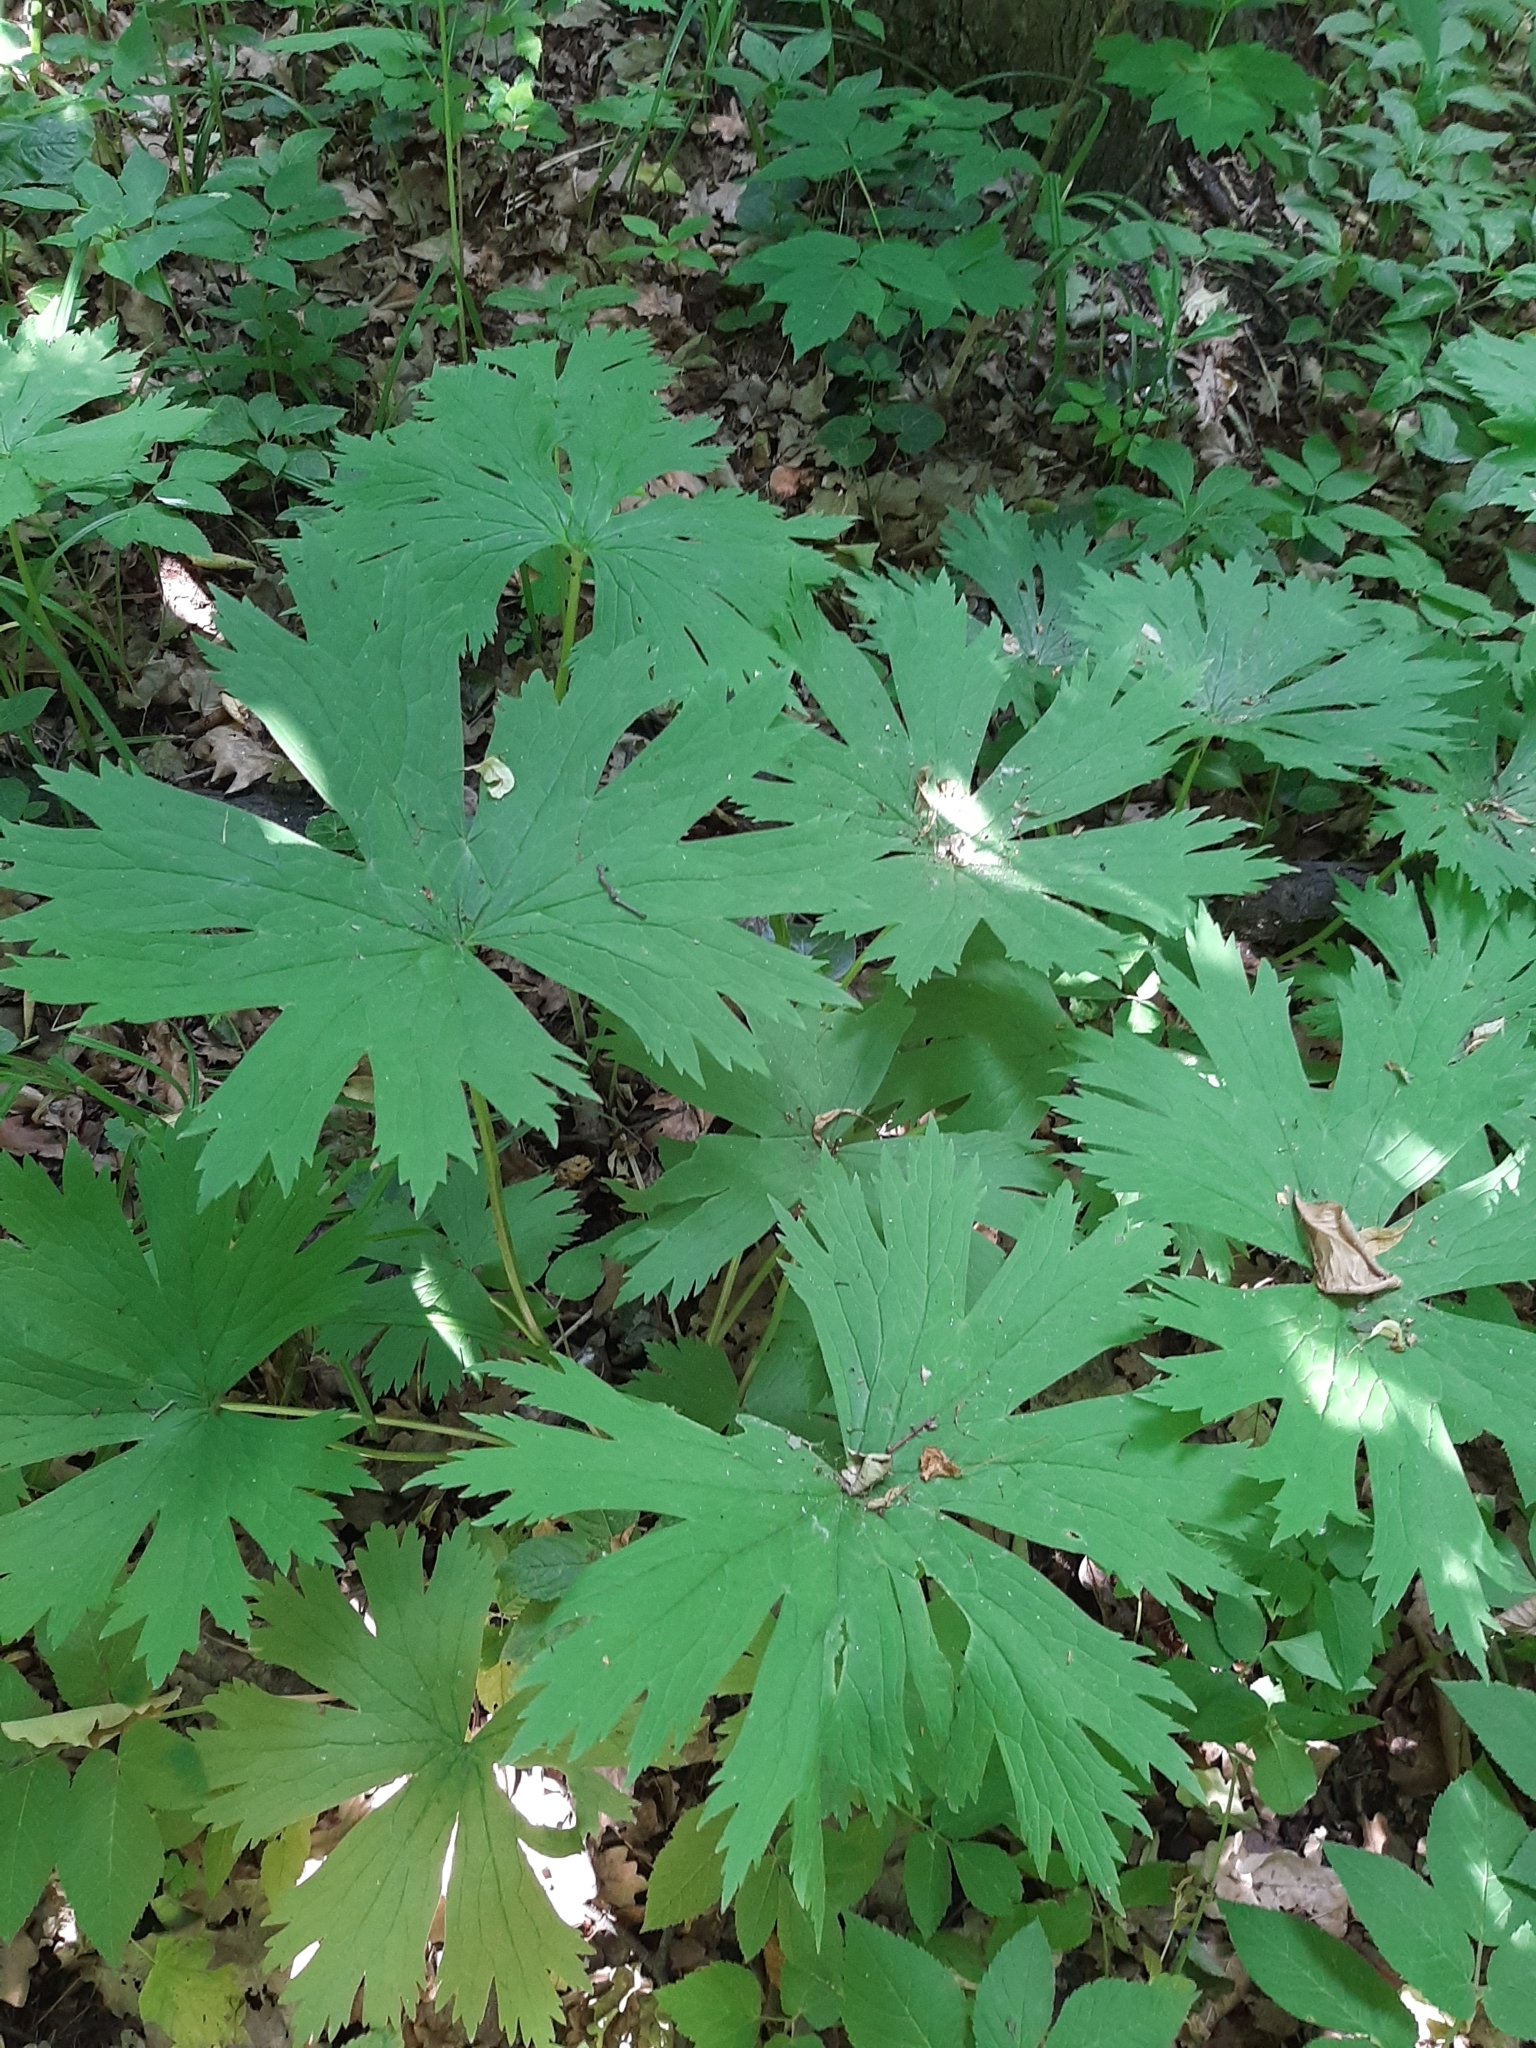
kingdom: Plantae
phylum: Tracheophyta
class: Magnoliopsida
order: Ranunculales
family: Ranunculaceae
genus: Aconitum
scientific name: Aconitum septentrionale
